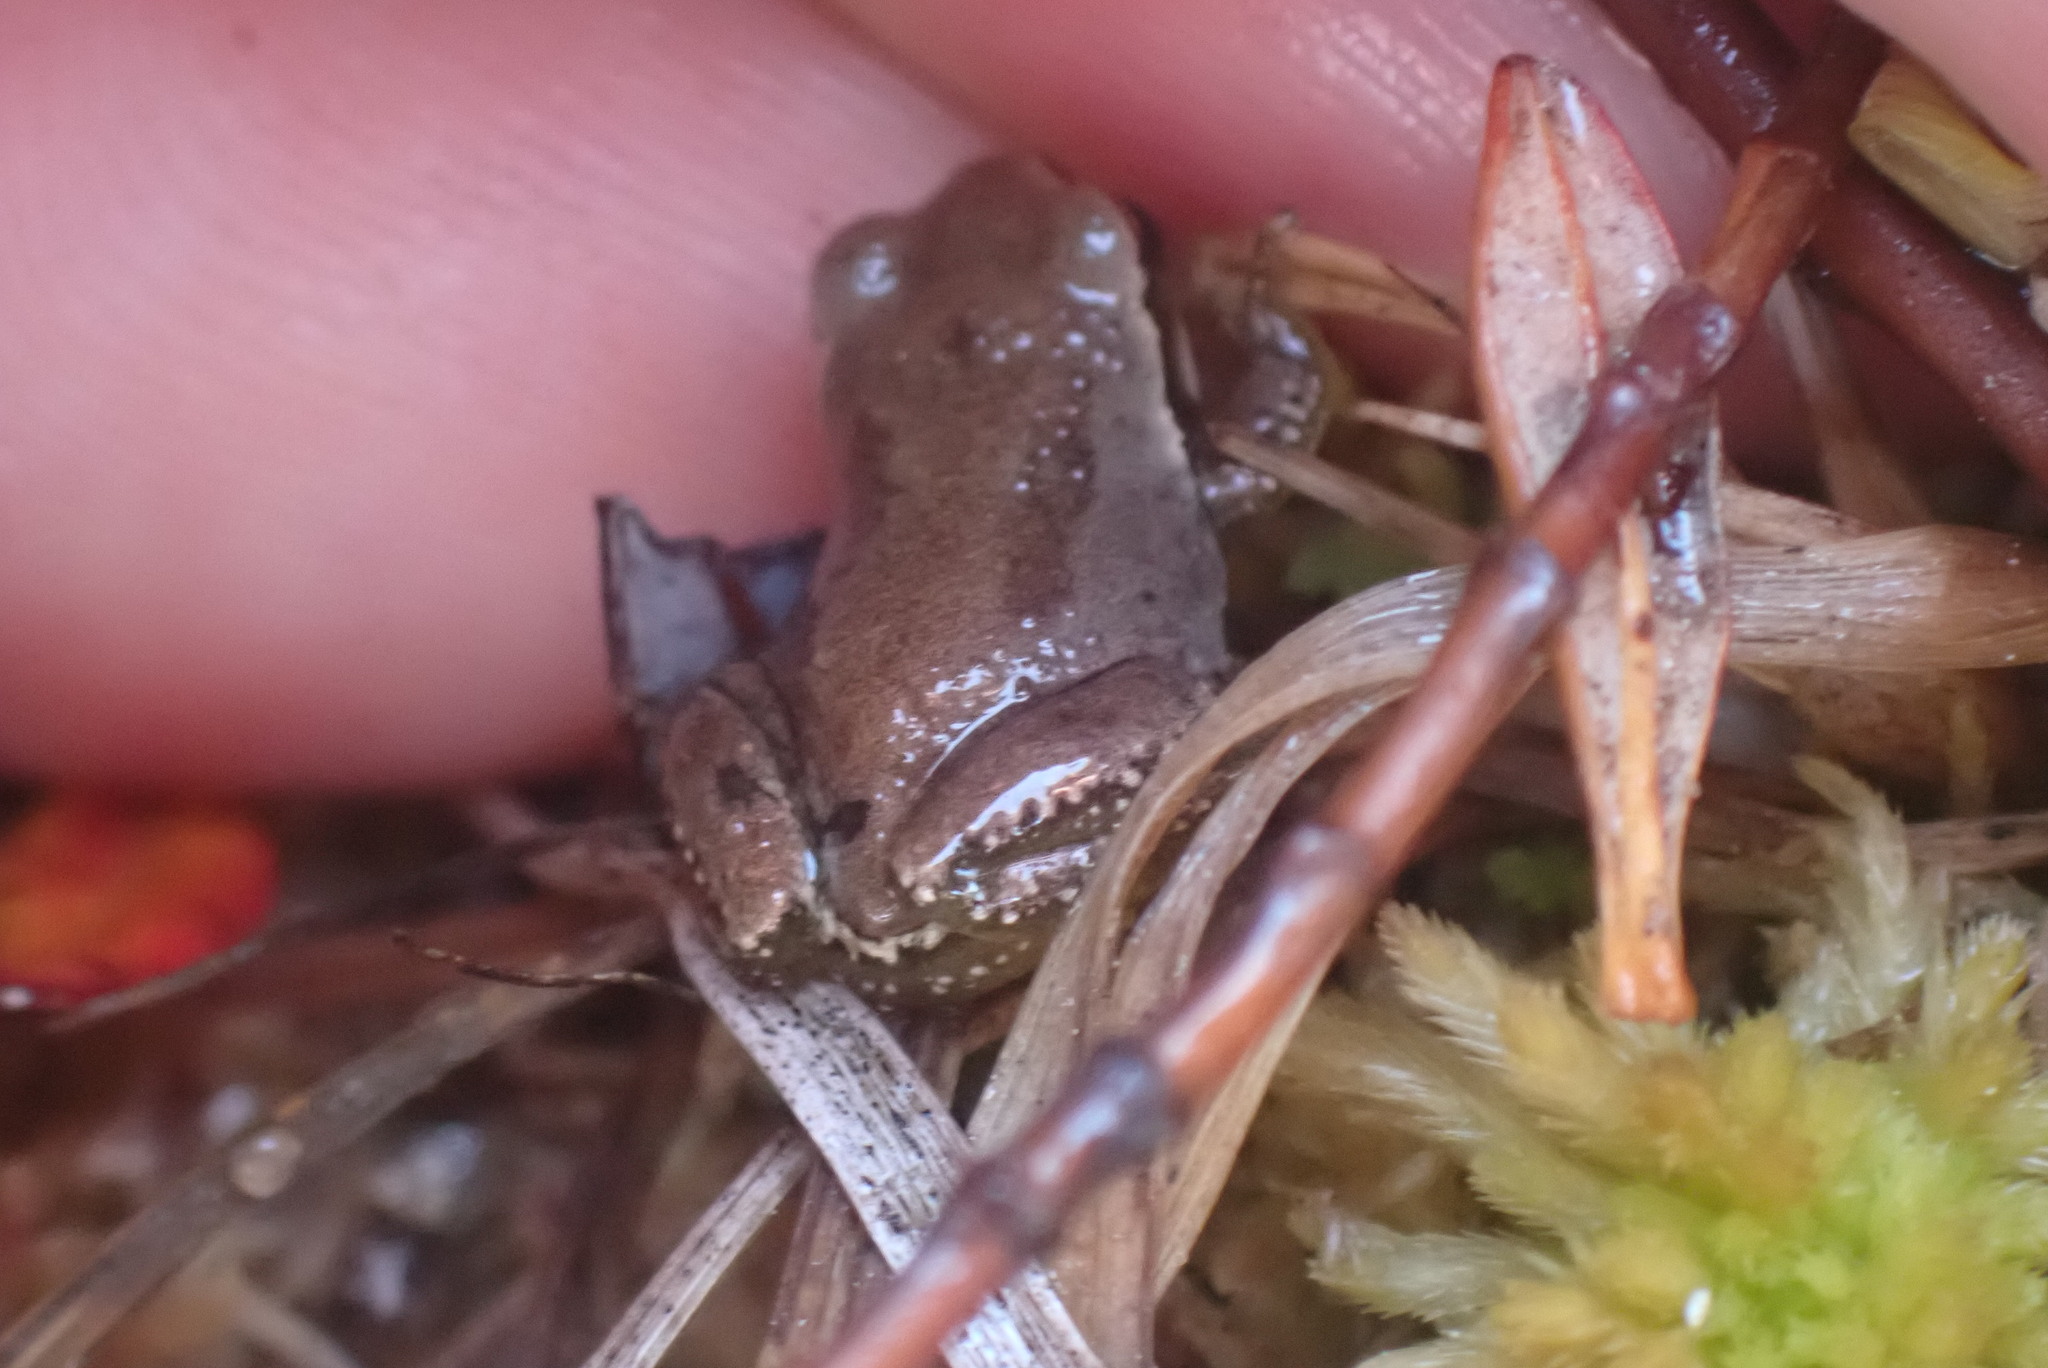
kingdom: Animalia
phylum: Chordata
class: Amphibia
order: Anura
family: Hylidae
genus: Pseudacris
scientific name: Pseudacris regilla
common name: Pacific chorus frog
